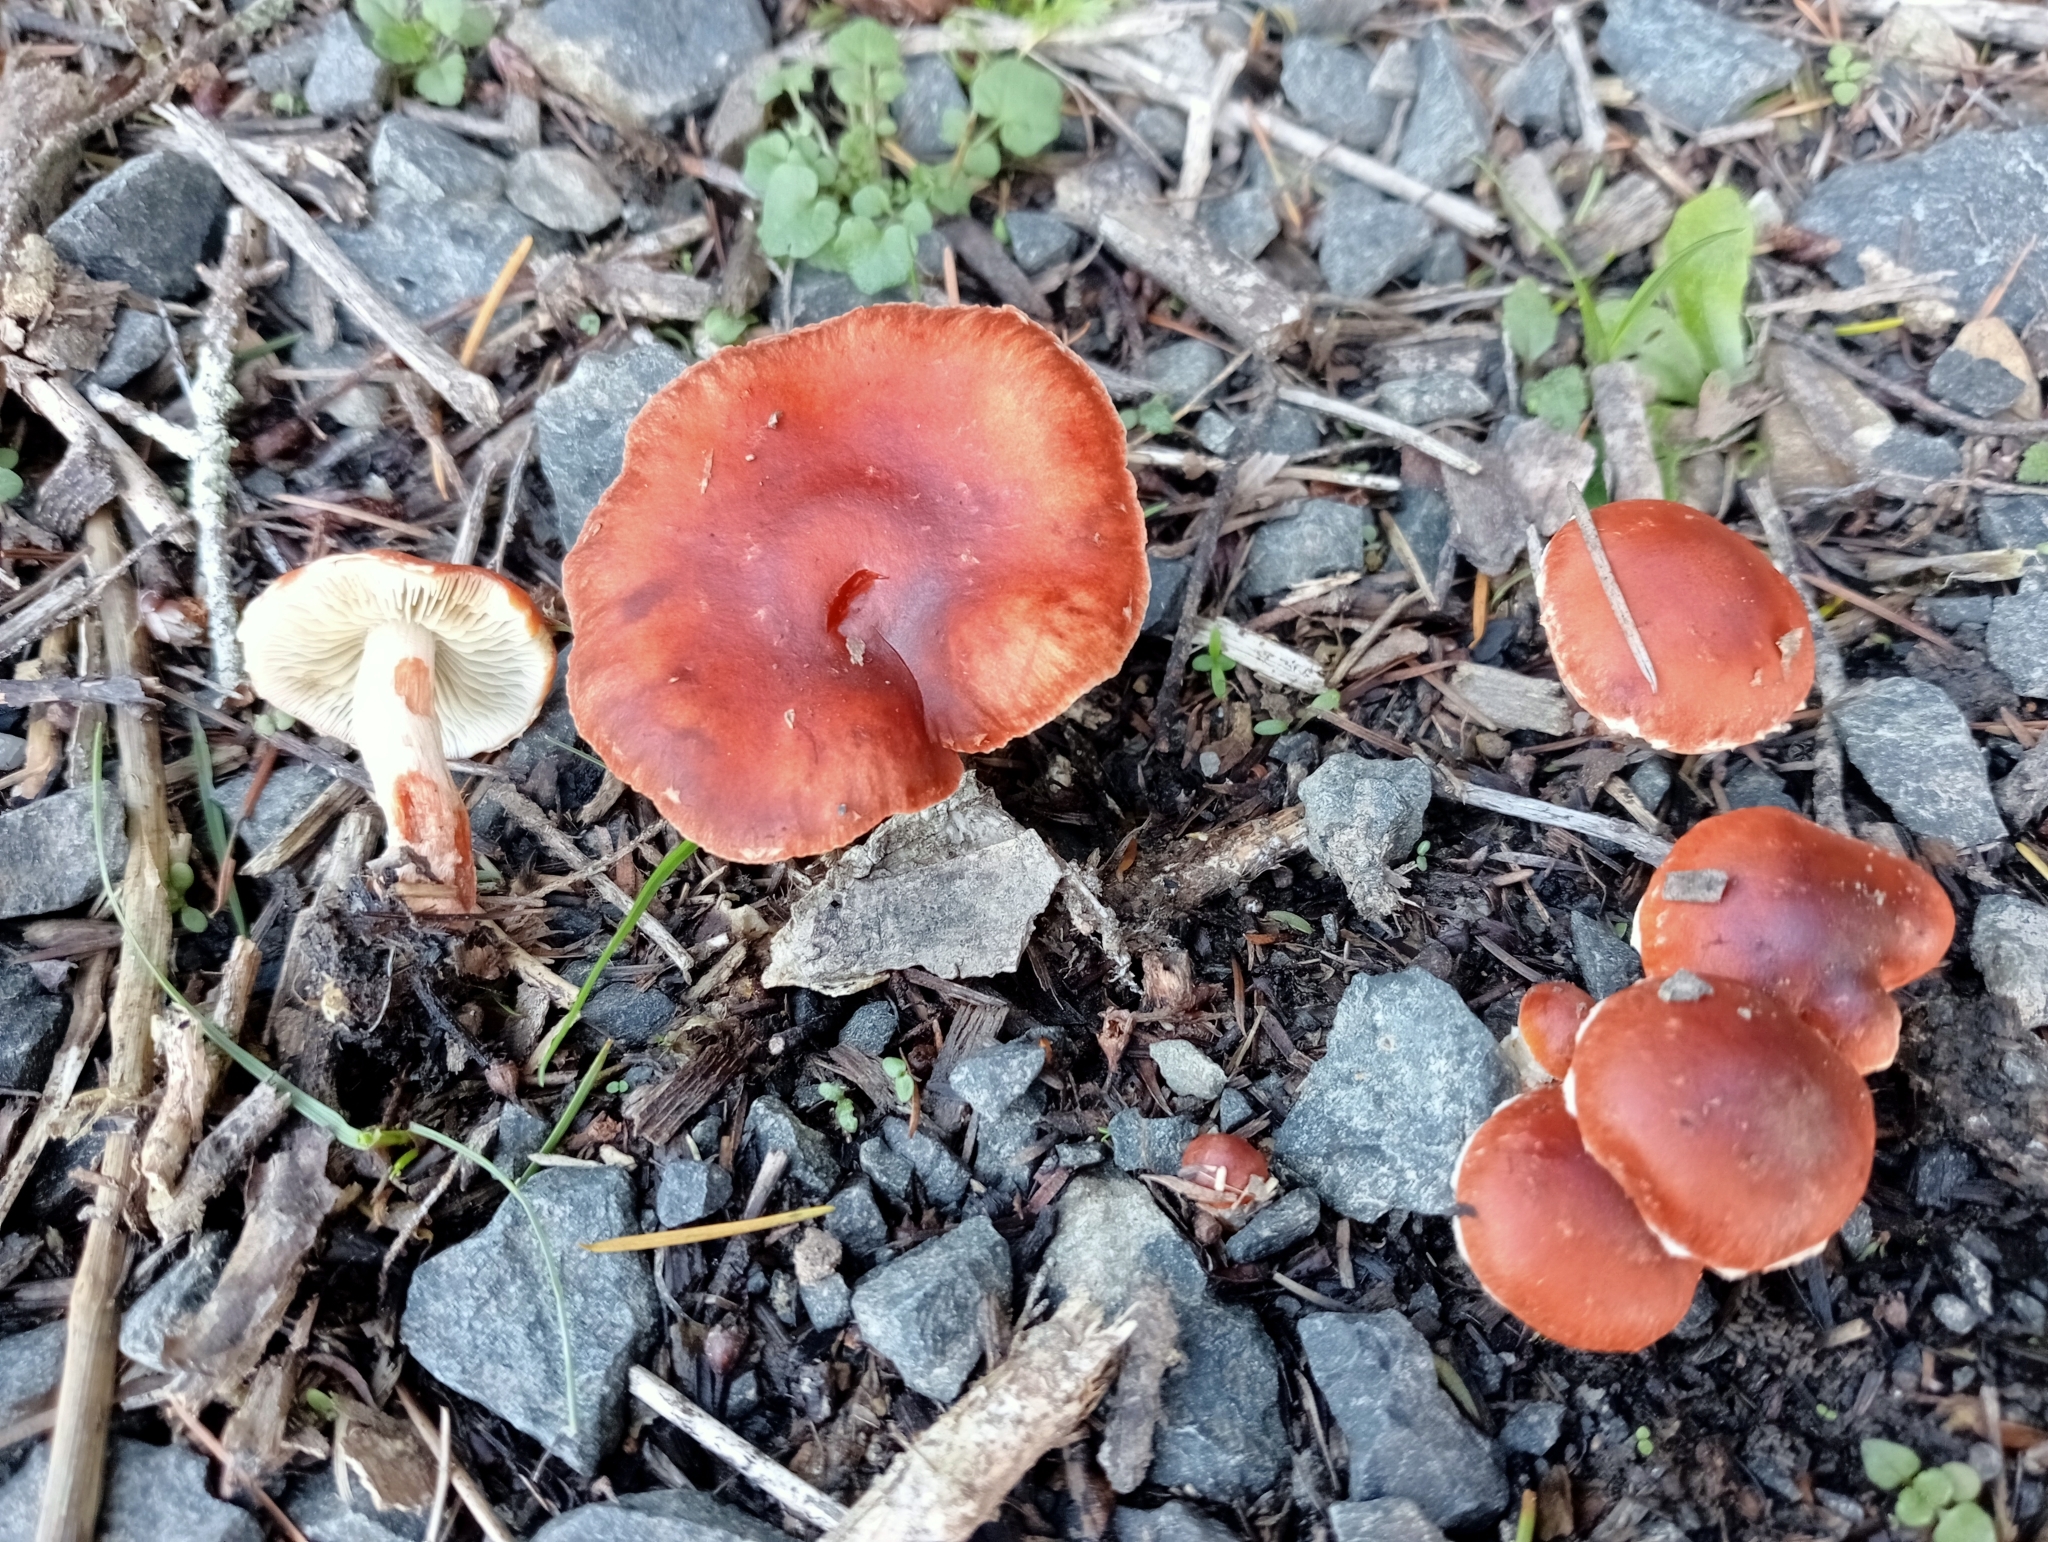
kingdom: Fungi
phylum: Basidiomycota
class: Agaricomycetes
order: Agaricales
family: Strophariaceae
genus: Leratiomyces
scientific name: Leratiomyces ceres
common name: Redlead roundhead
